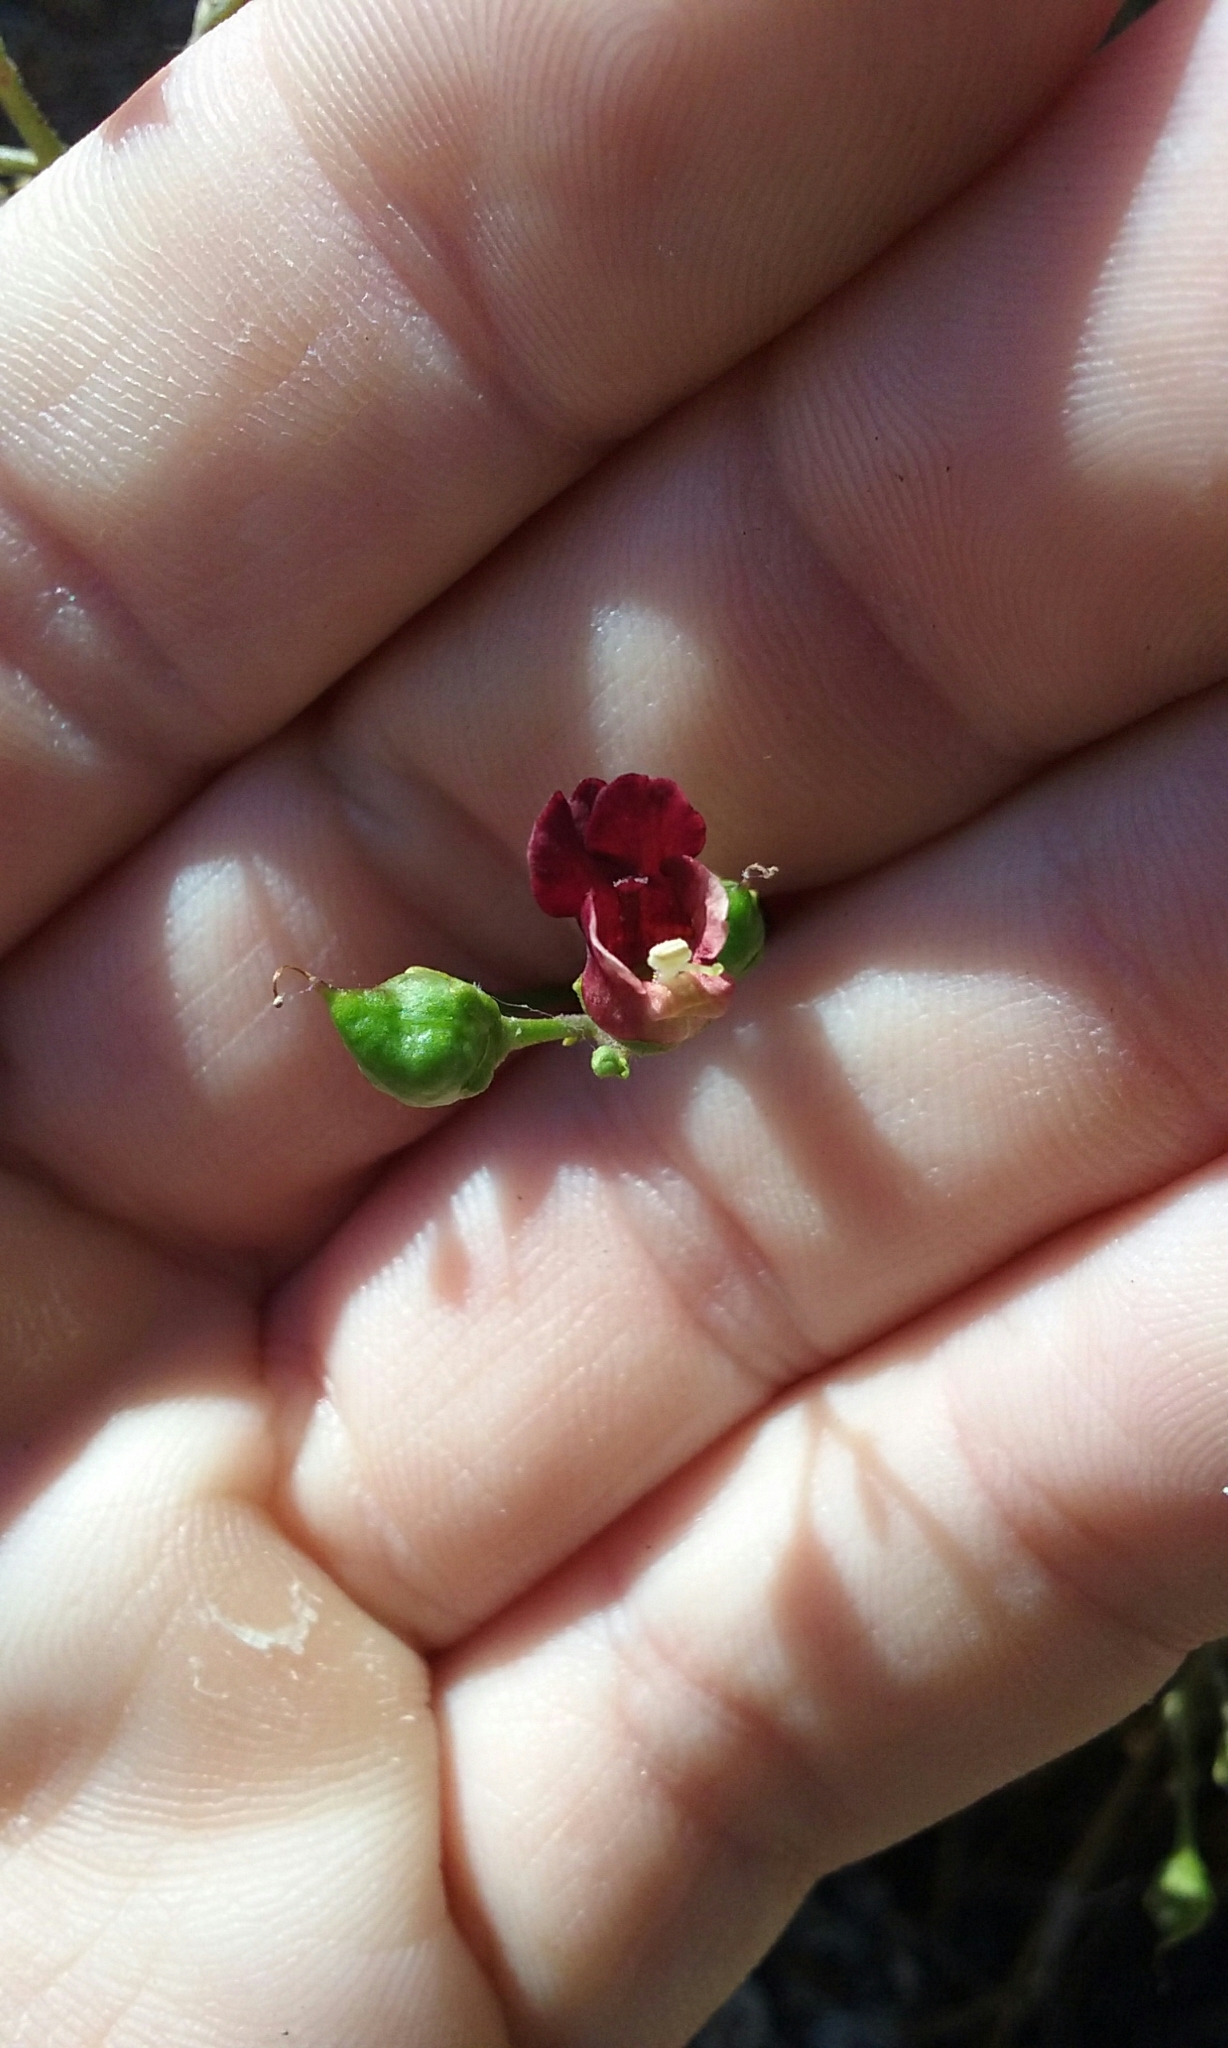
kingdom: Plantae
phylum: Tracheophyta
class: Magnoliopsida
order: Lamiales
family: Scrophulariaceae
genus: Scrophularia
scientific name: Scrophularia californica
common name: California figwort
